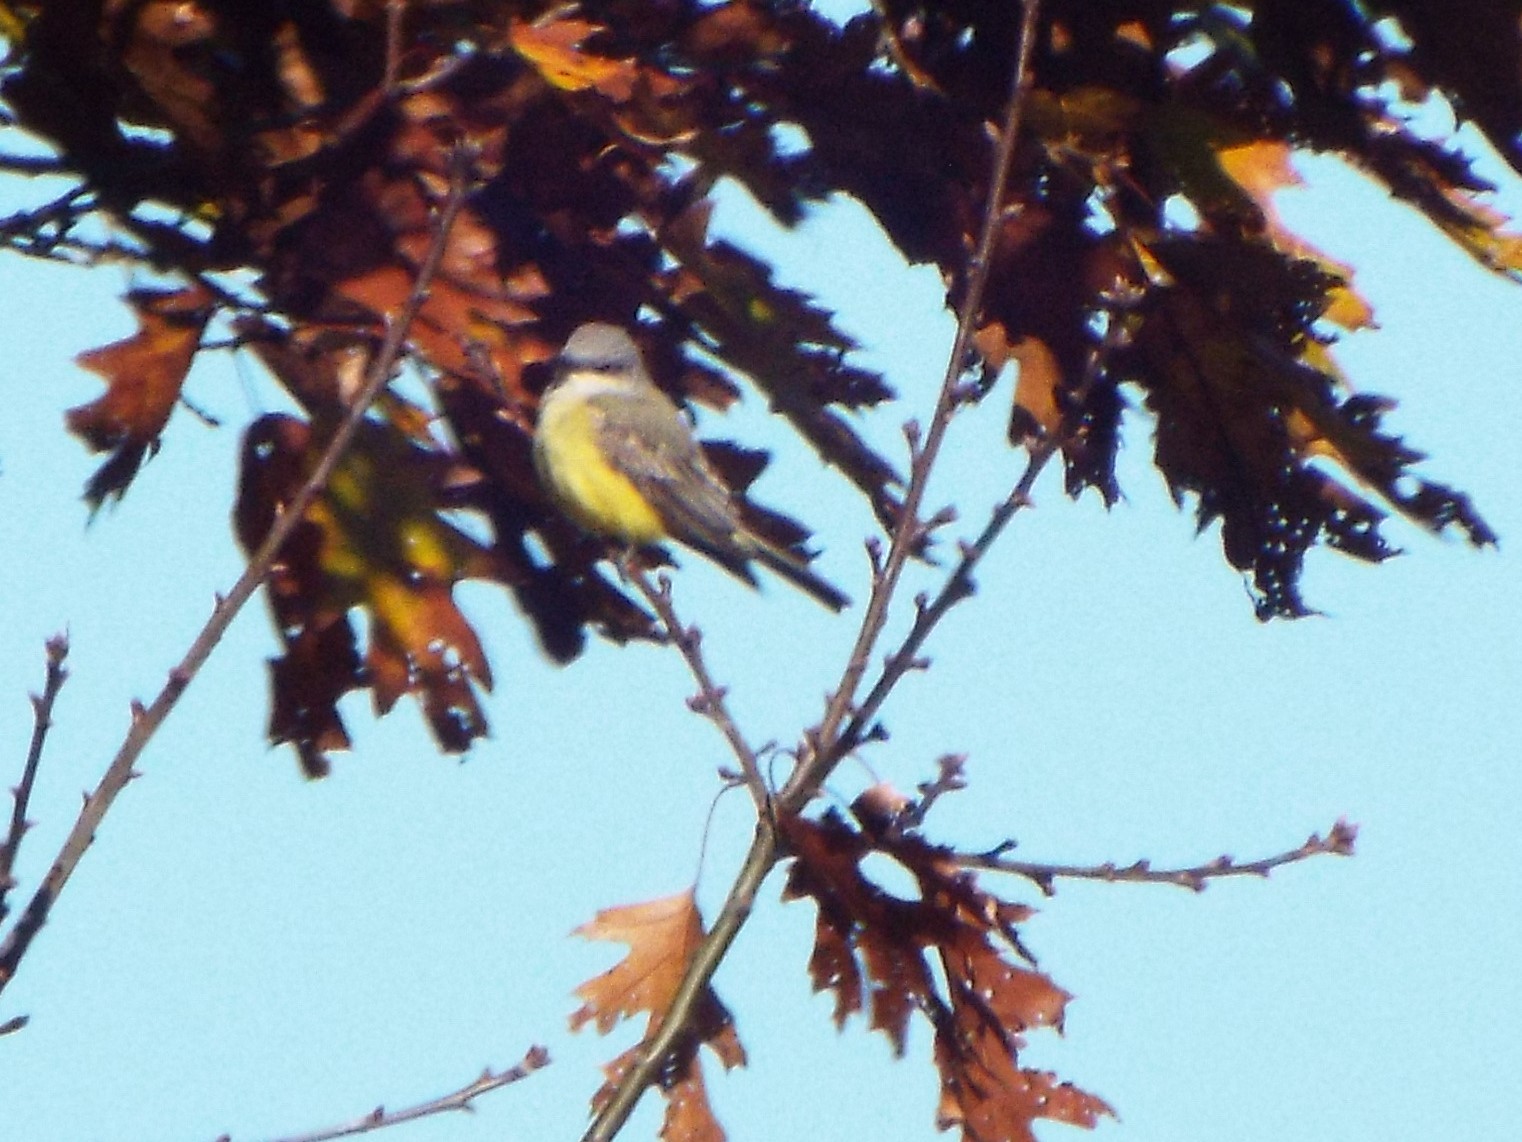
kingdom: Animalia
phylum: Chordata
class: Aves
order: Passeriformes
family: Tyrannidae
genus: Tyrannus
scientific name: Tyrannus verticalis
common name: Western kingbird
